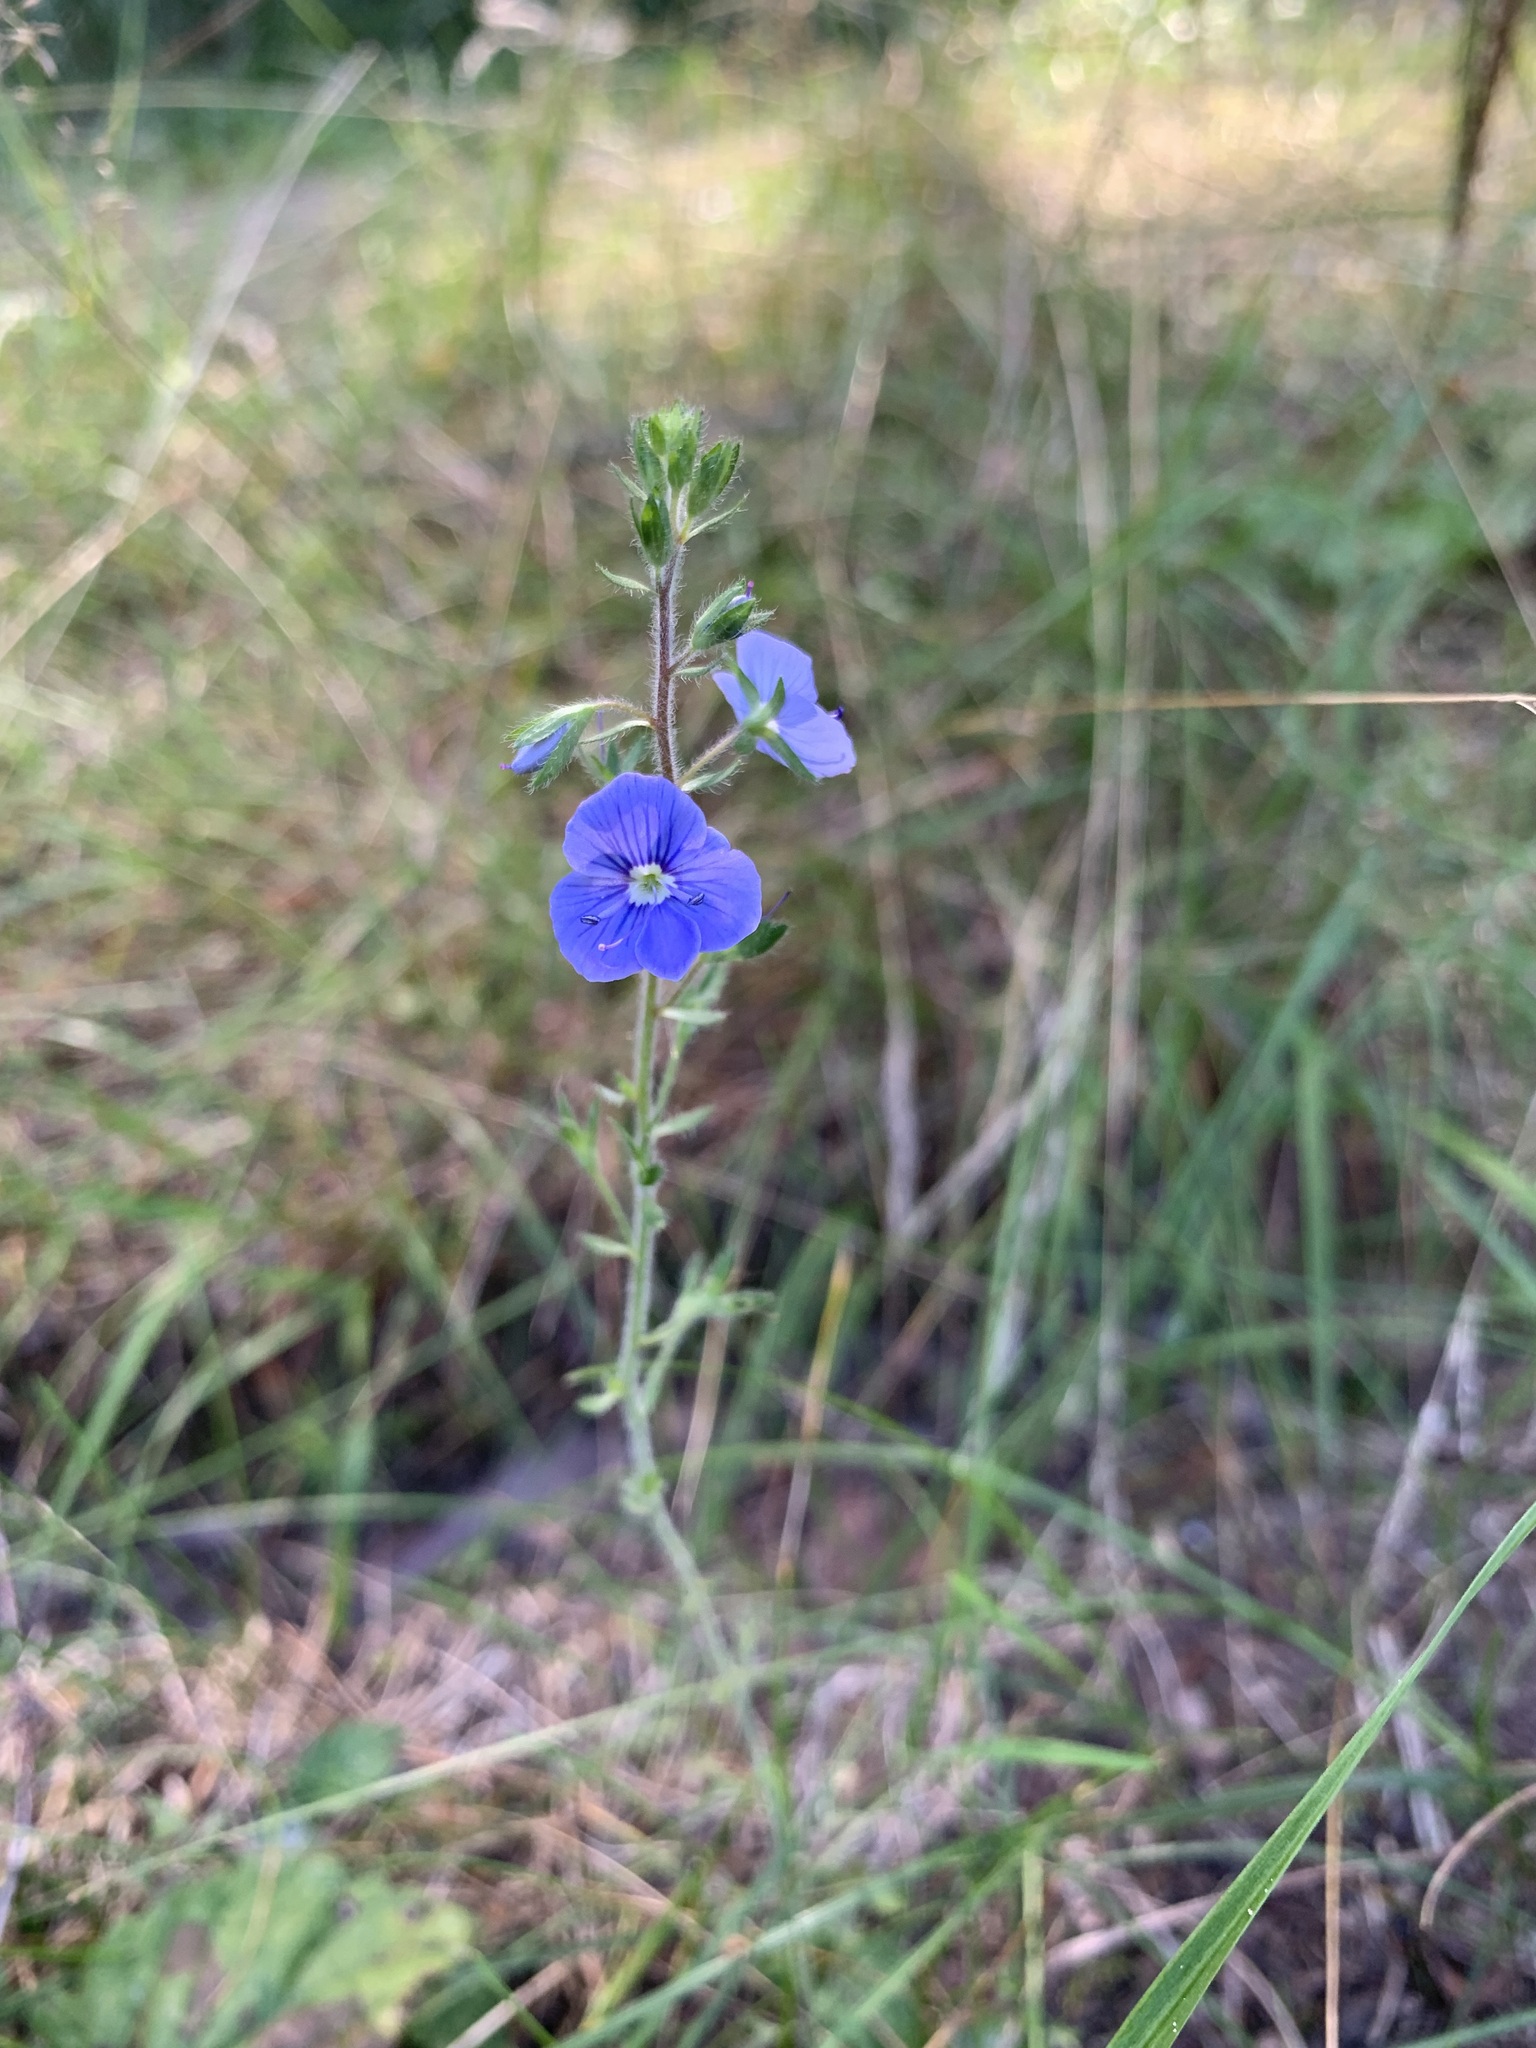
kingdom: Plantae
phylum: Tracheophyta
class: Magnoliopsida
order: Lamiales
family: Plantaginaceae
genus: Veronica
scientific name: Veronica chamaedrys
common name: Germander speedwell
